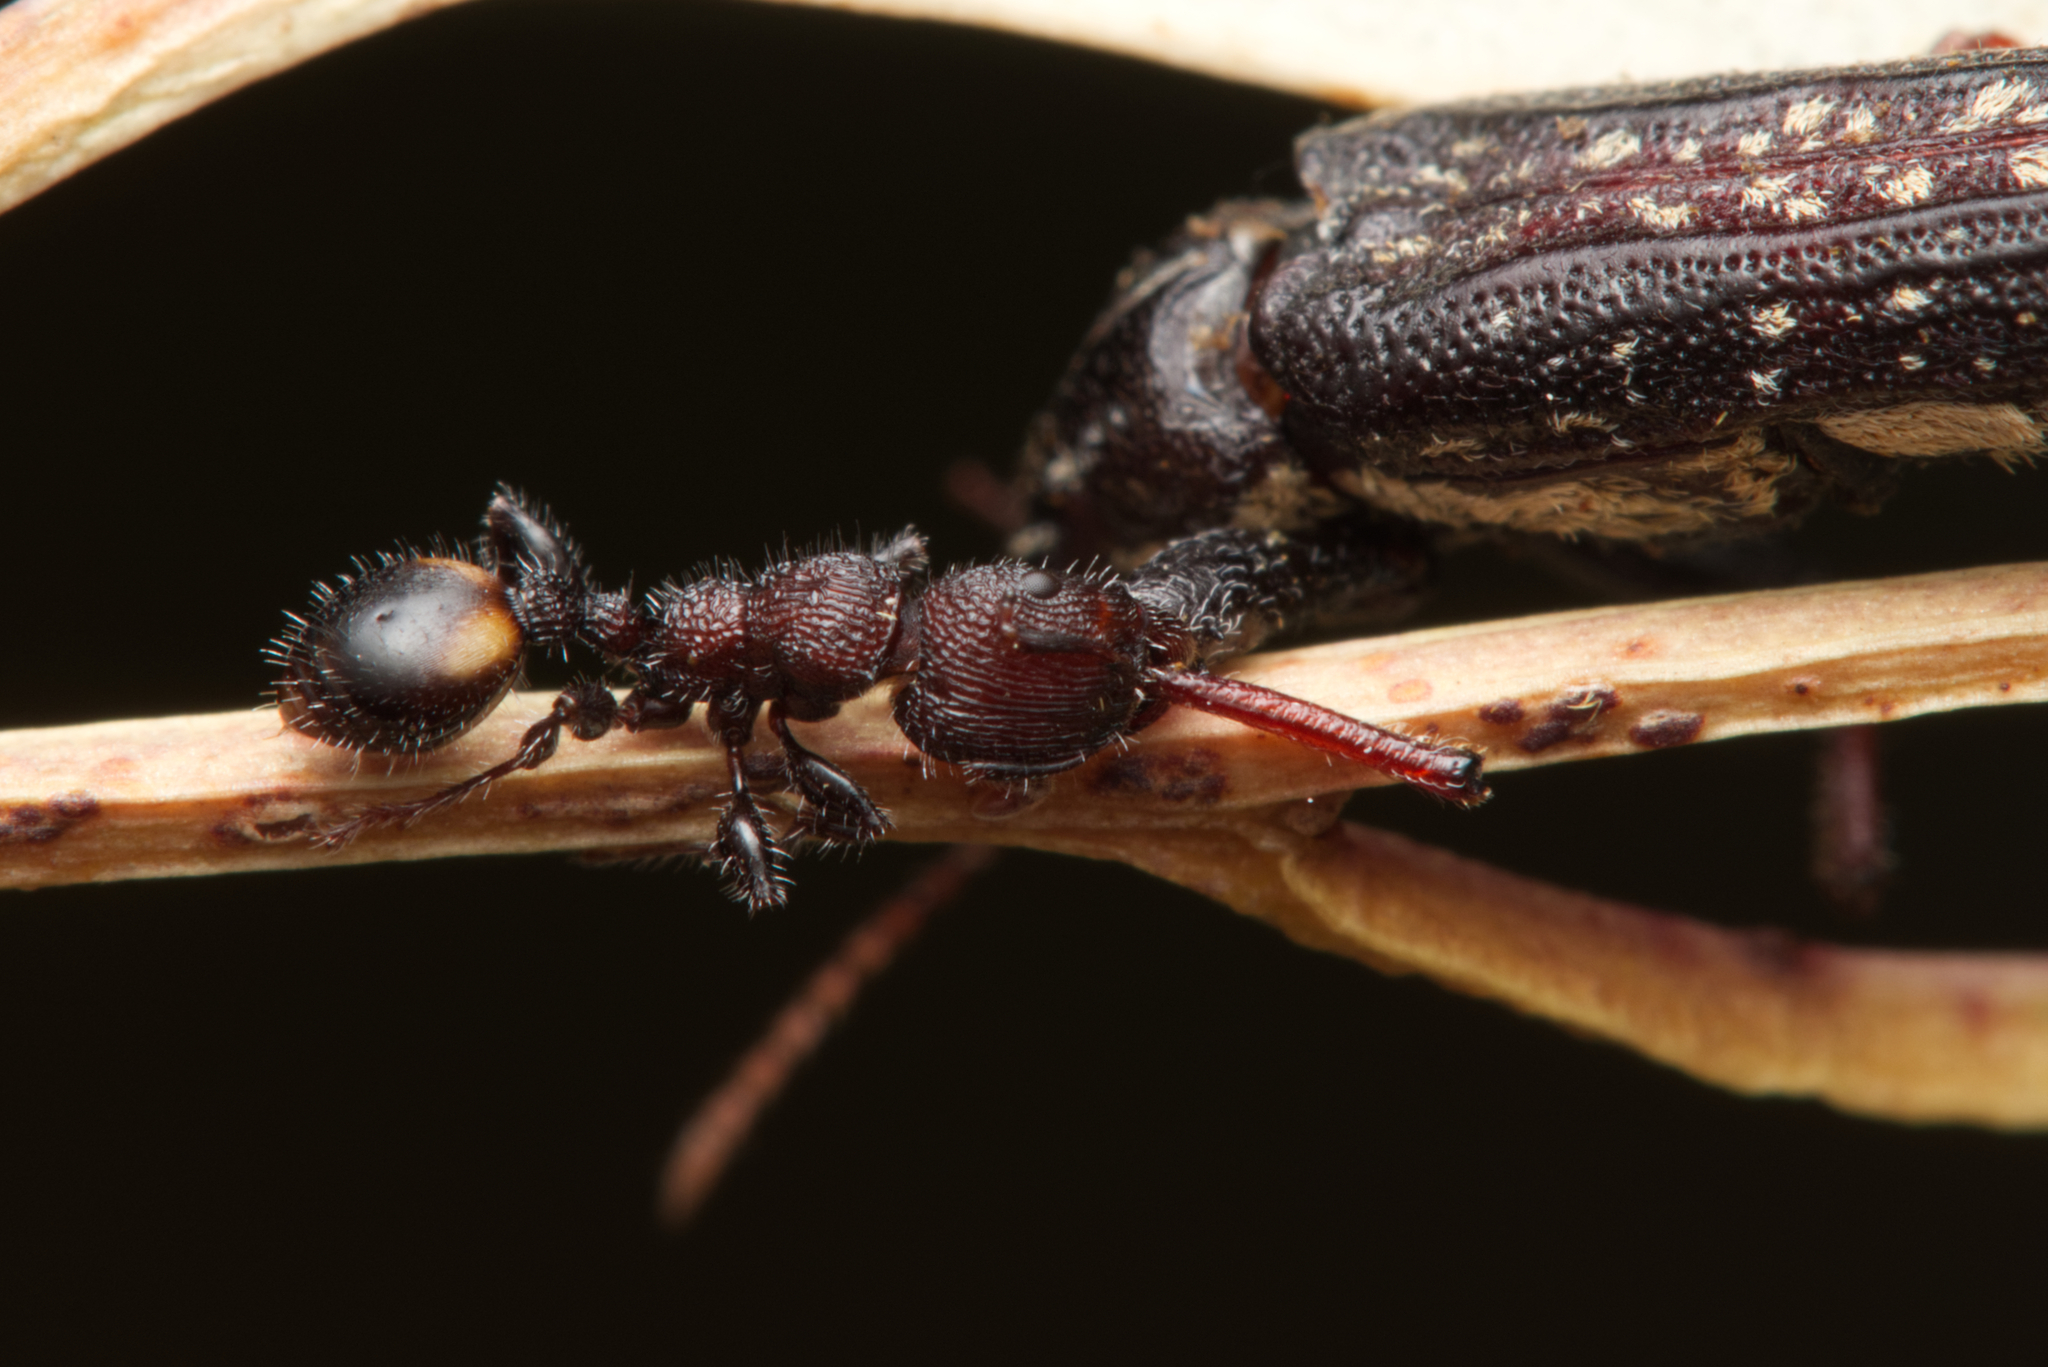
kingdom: Animalia
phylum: Arthropoda
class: Insecta
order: Hymenoptera
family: Formicidae
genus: Podomyrma
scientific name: Podomyrma
